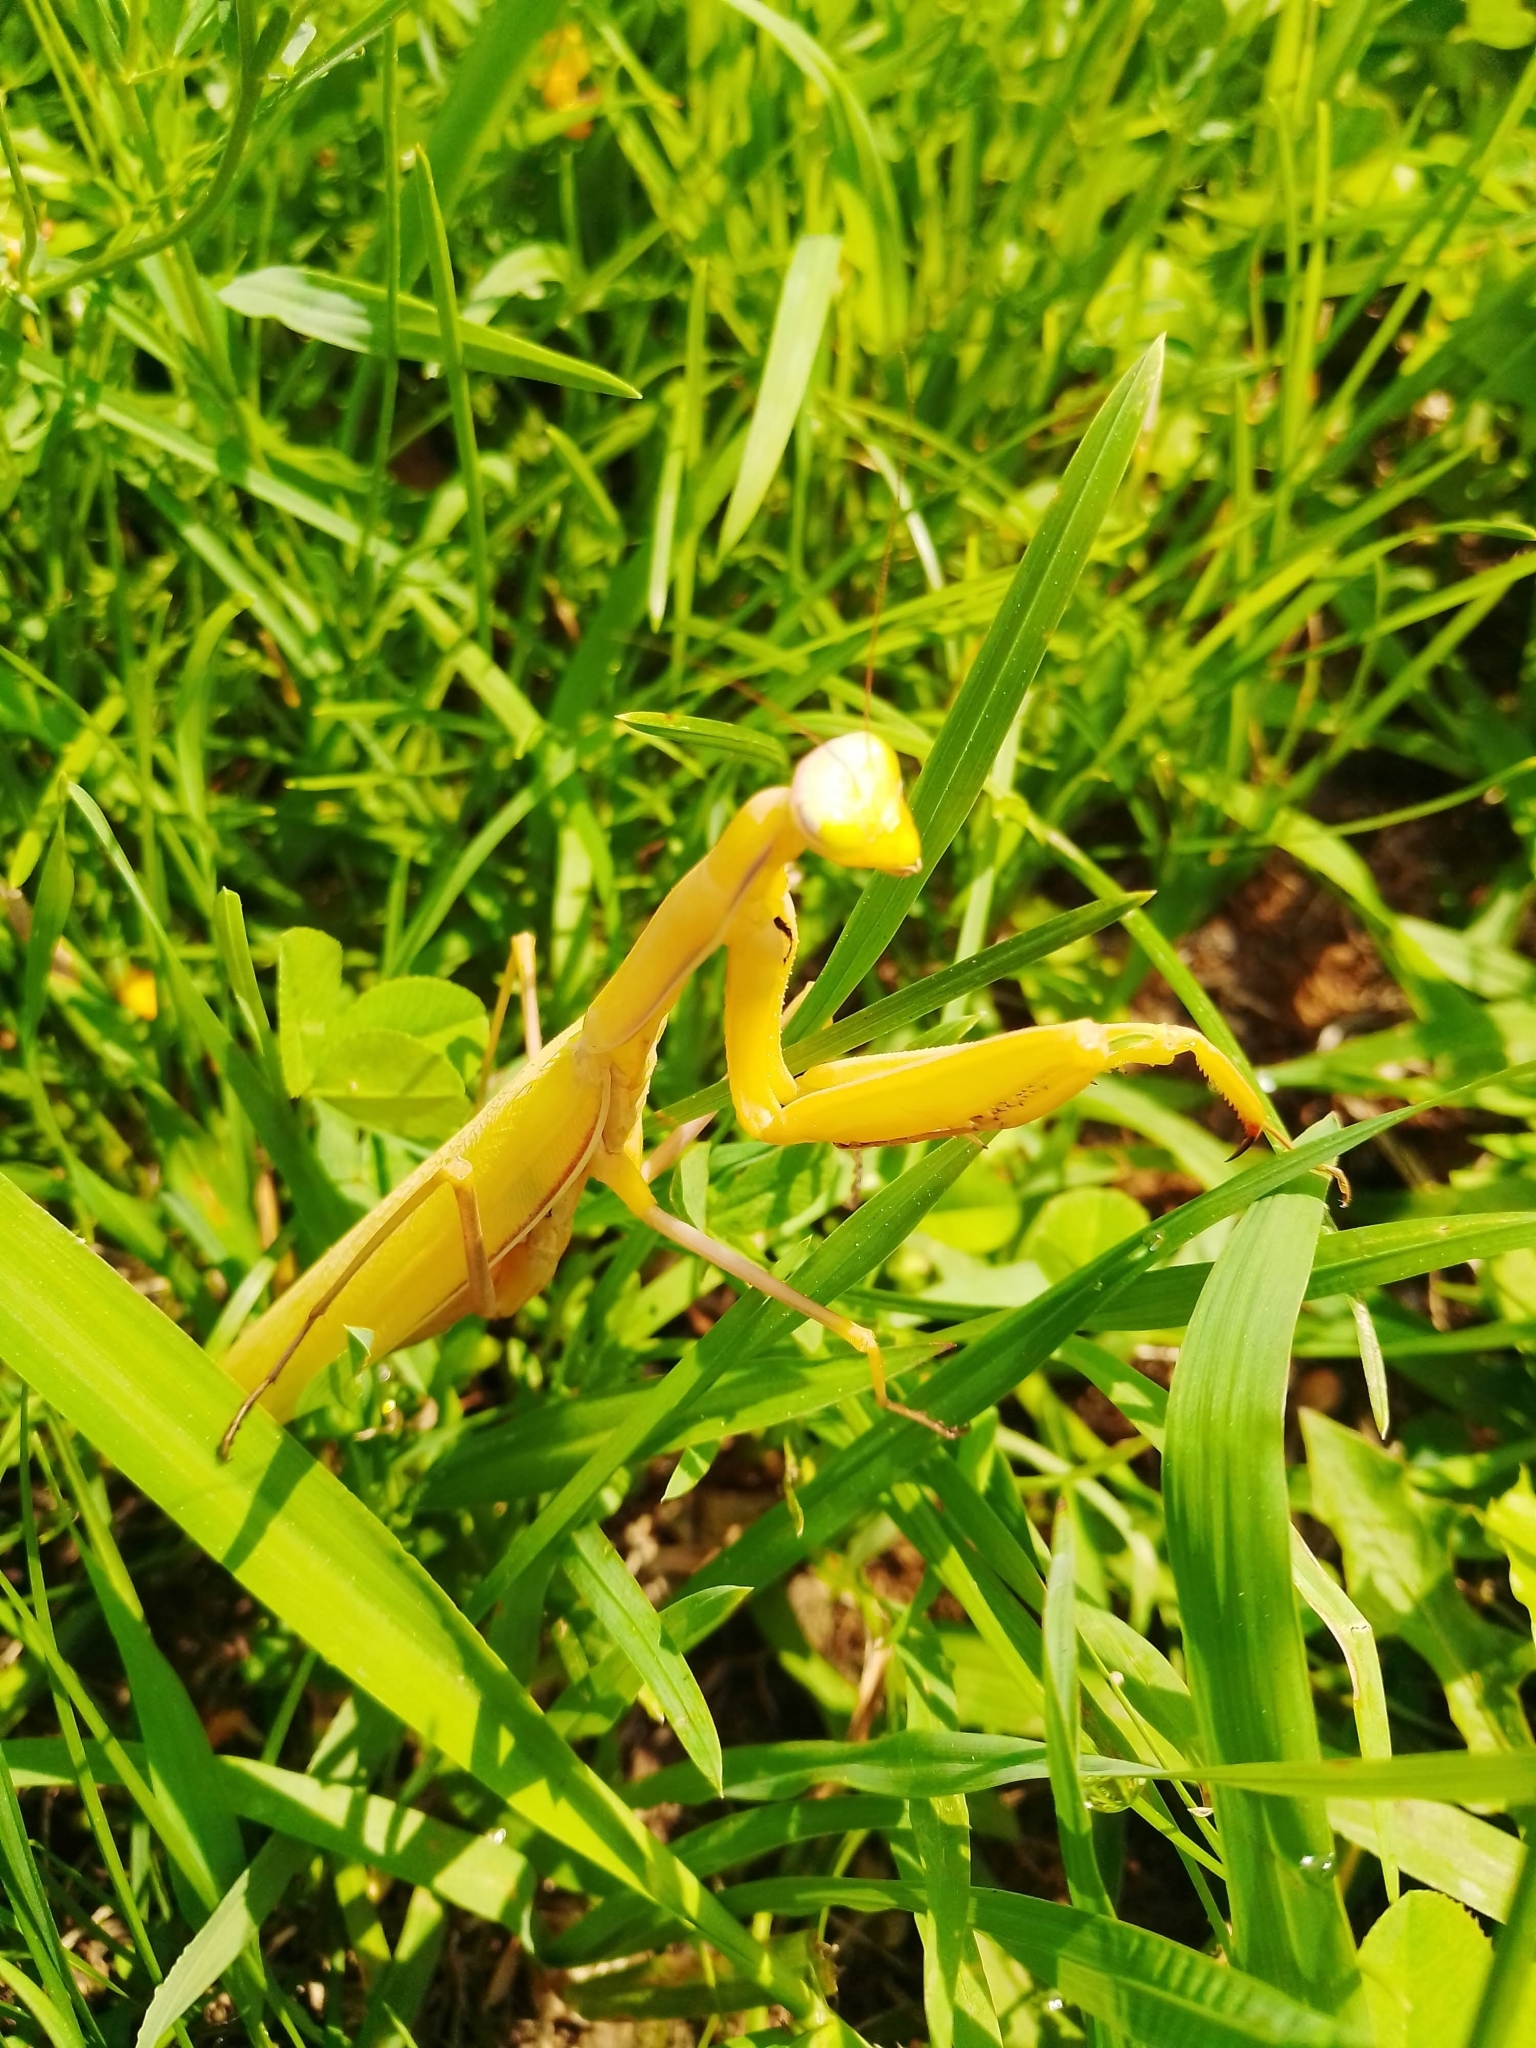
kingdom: Animalia
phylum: Arthropoda
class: Insecta
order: Mantodea
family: Mantidae
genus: Mantis
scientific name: Mantis religiosa
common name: Praying mantis
